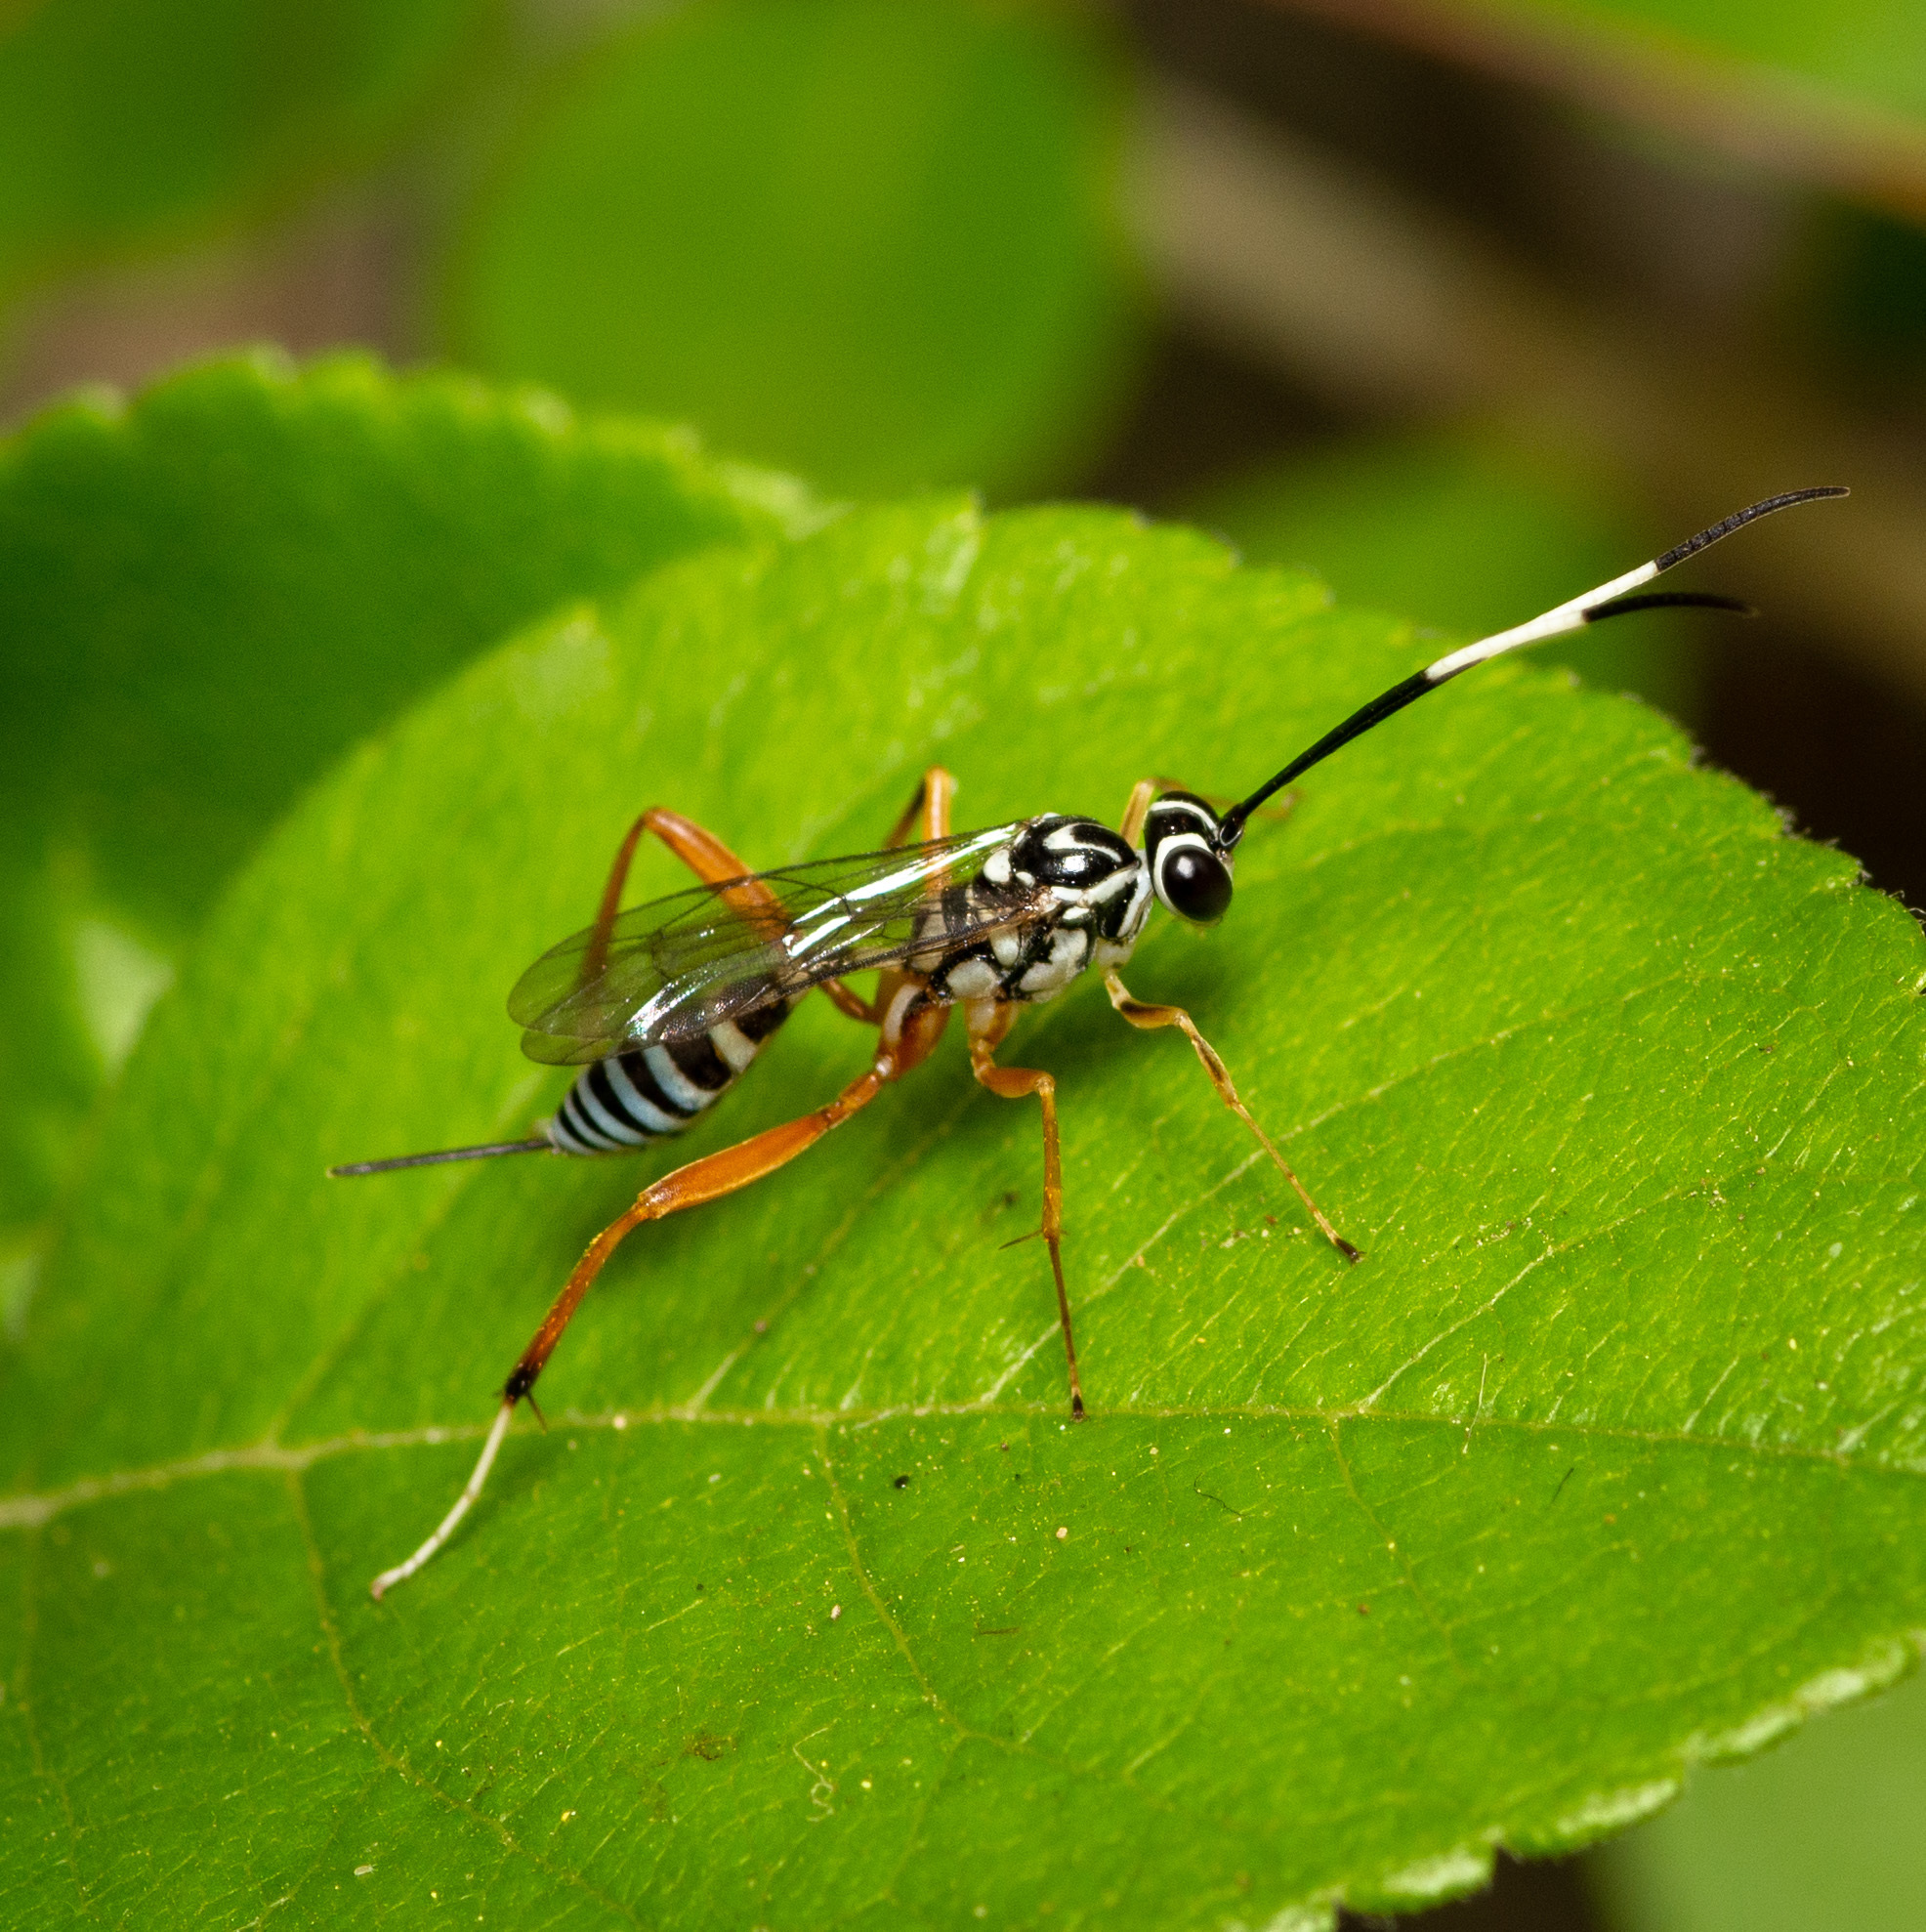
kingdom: Animalia
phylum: Arthropoda
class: Insecta
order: Hymenoptera
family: Ichneumonidae
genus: Messatoporus
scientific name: Messatoporus discoidalis
